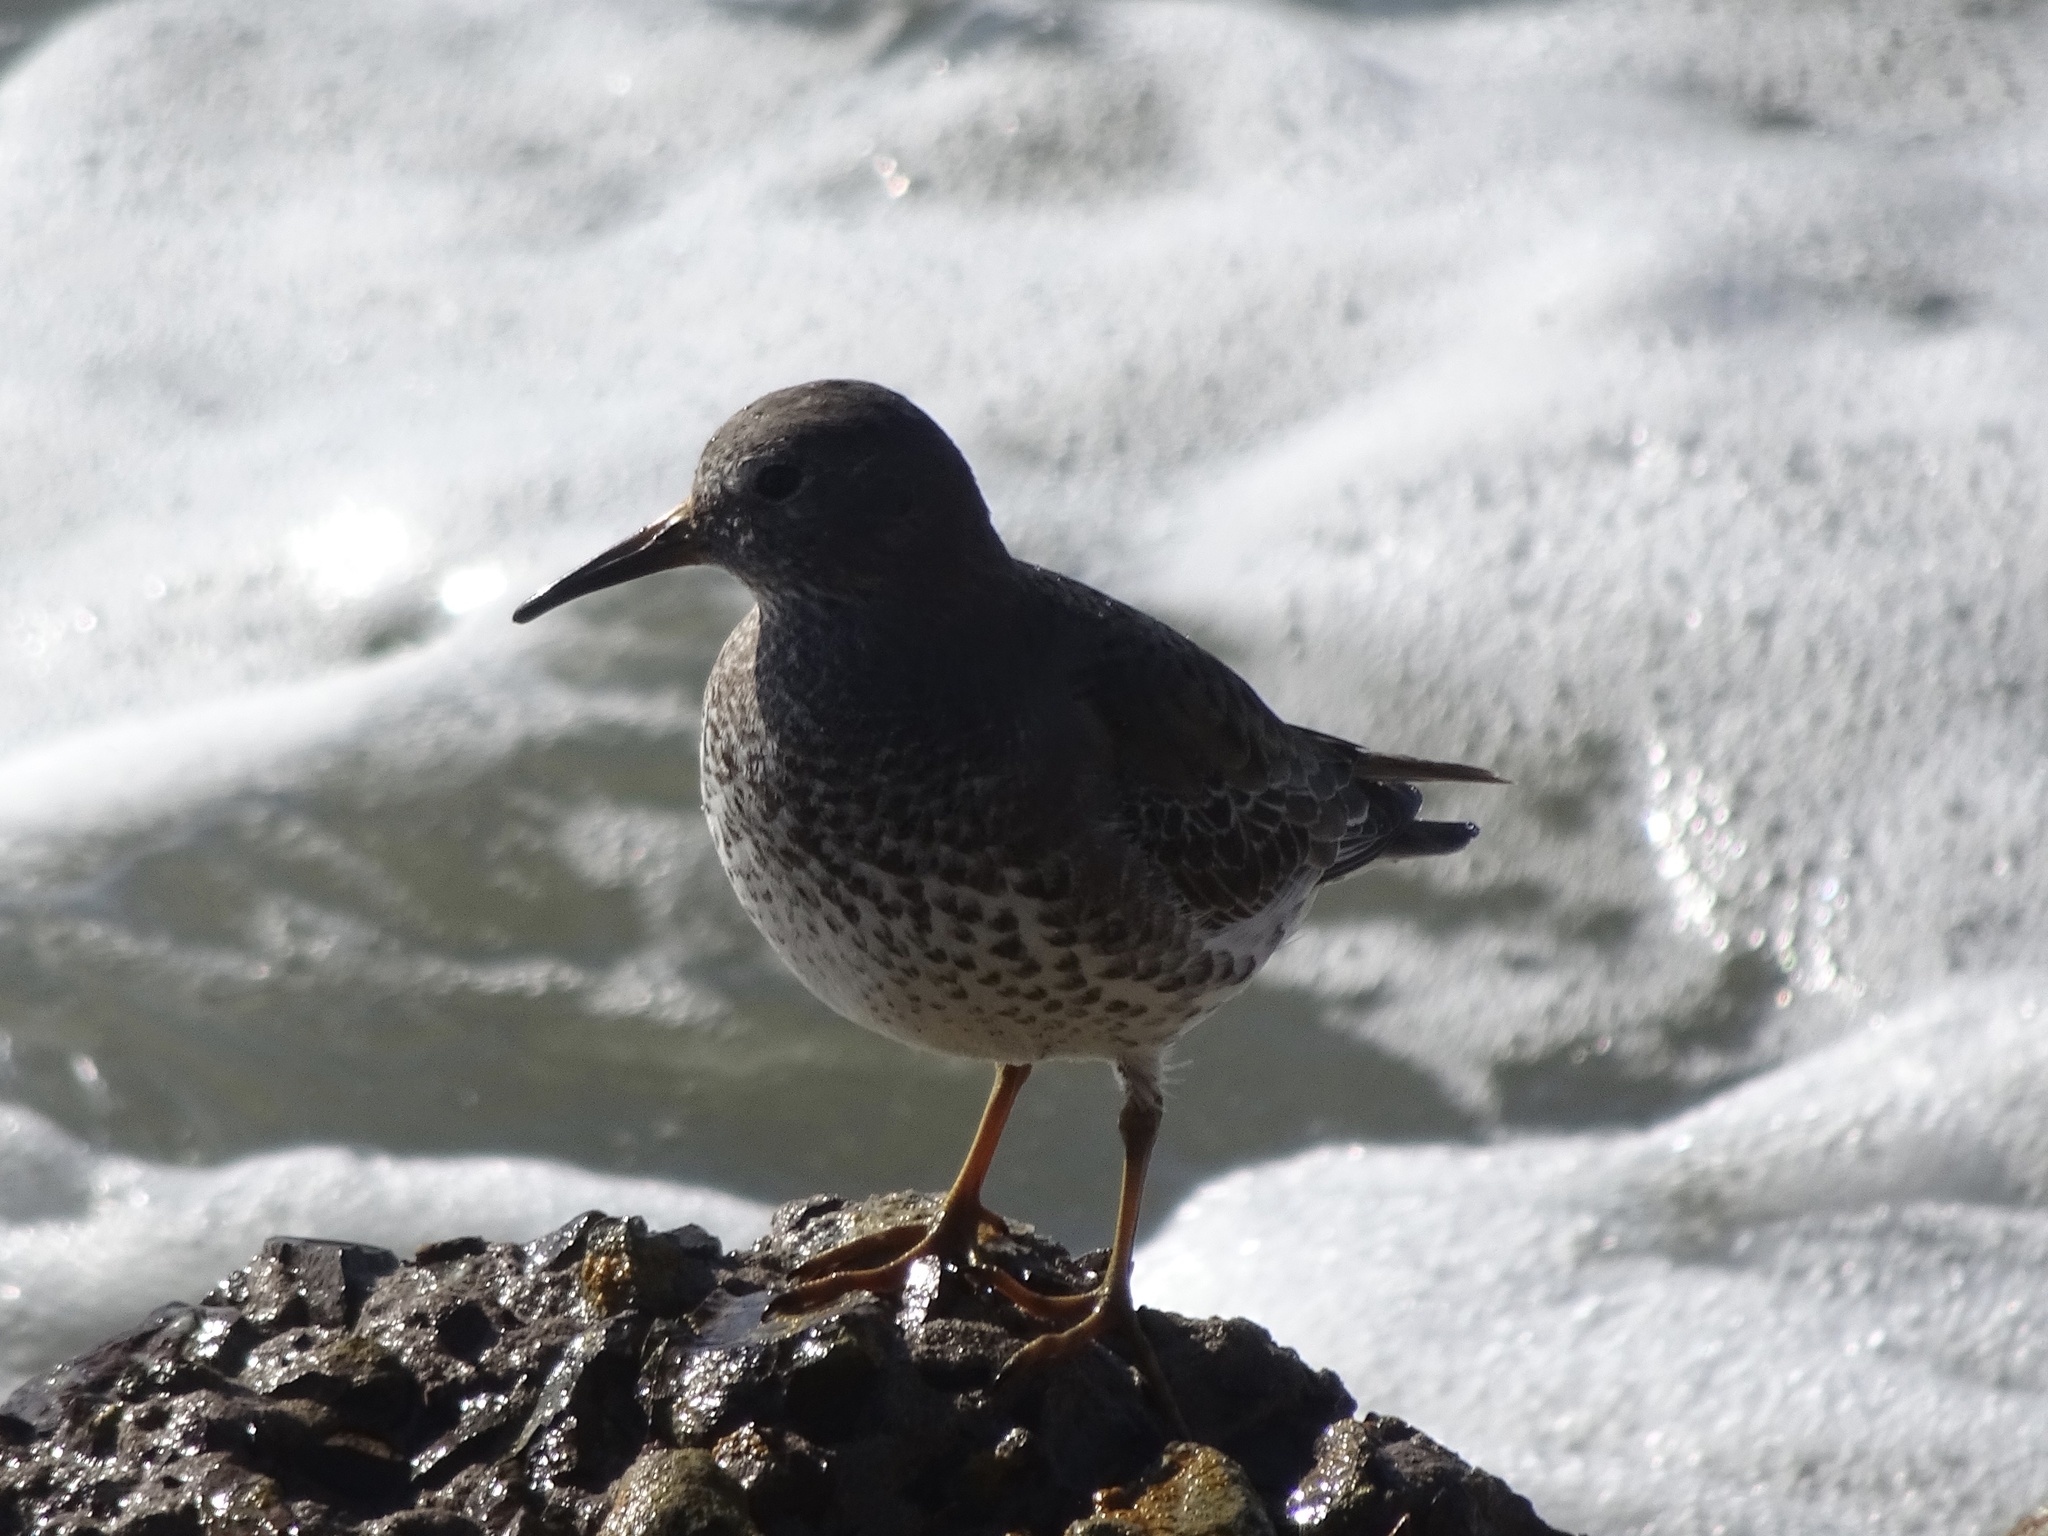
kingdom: Animalia
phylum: Chordata
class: Aves
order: Charadriiformes
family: Scolopacidae
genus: Calidris
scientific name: Calidris ptilocnemis
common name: Rock sandpiper
